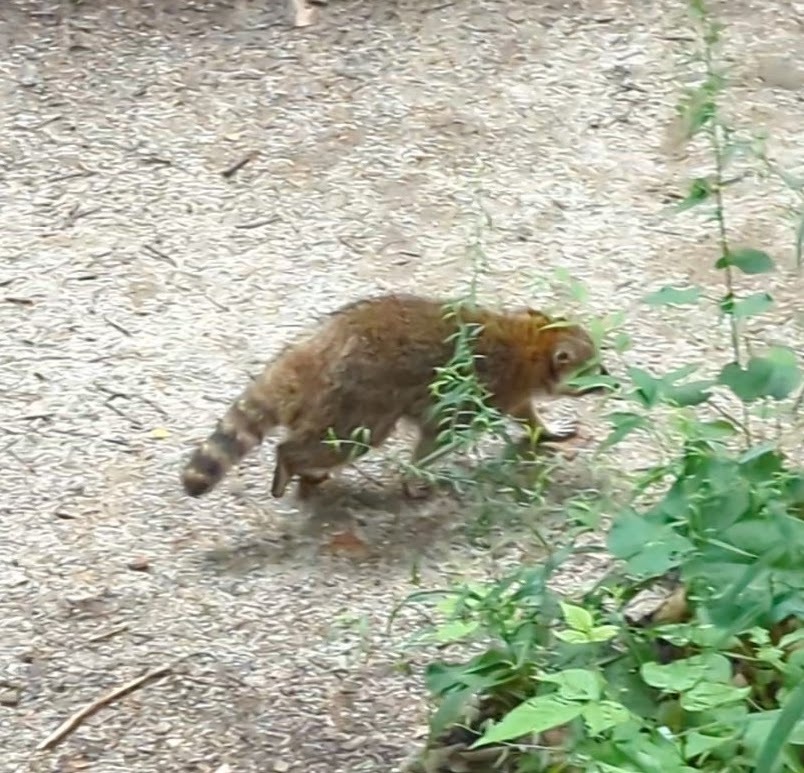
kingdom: Animalia
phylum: Chordata
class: Mammalia
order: Carnivora
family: Procyonidae
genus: Procyon
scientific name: Procyon lotor
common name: Raccoon
